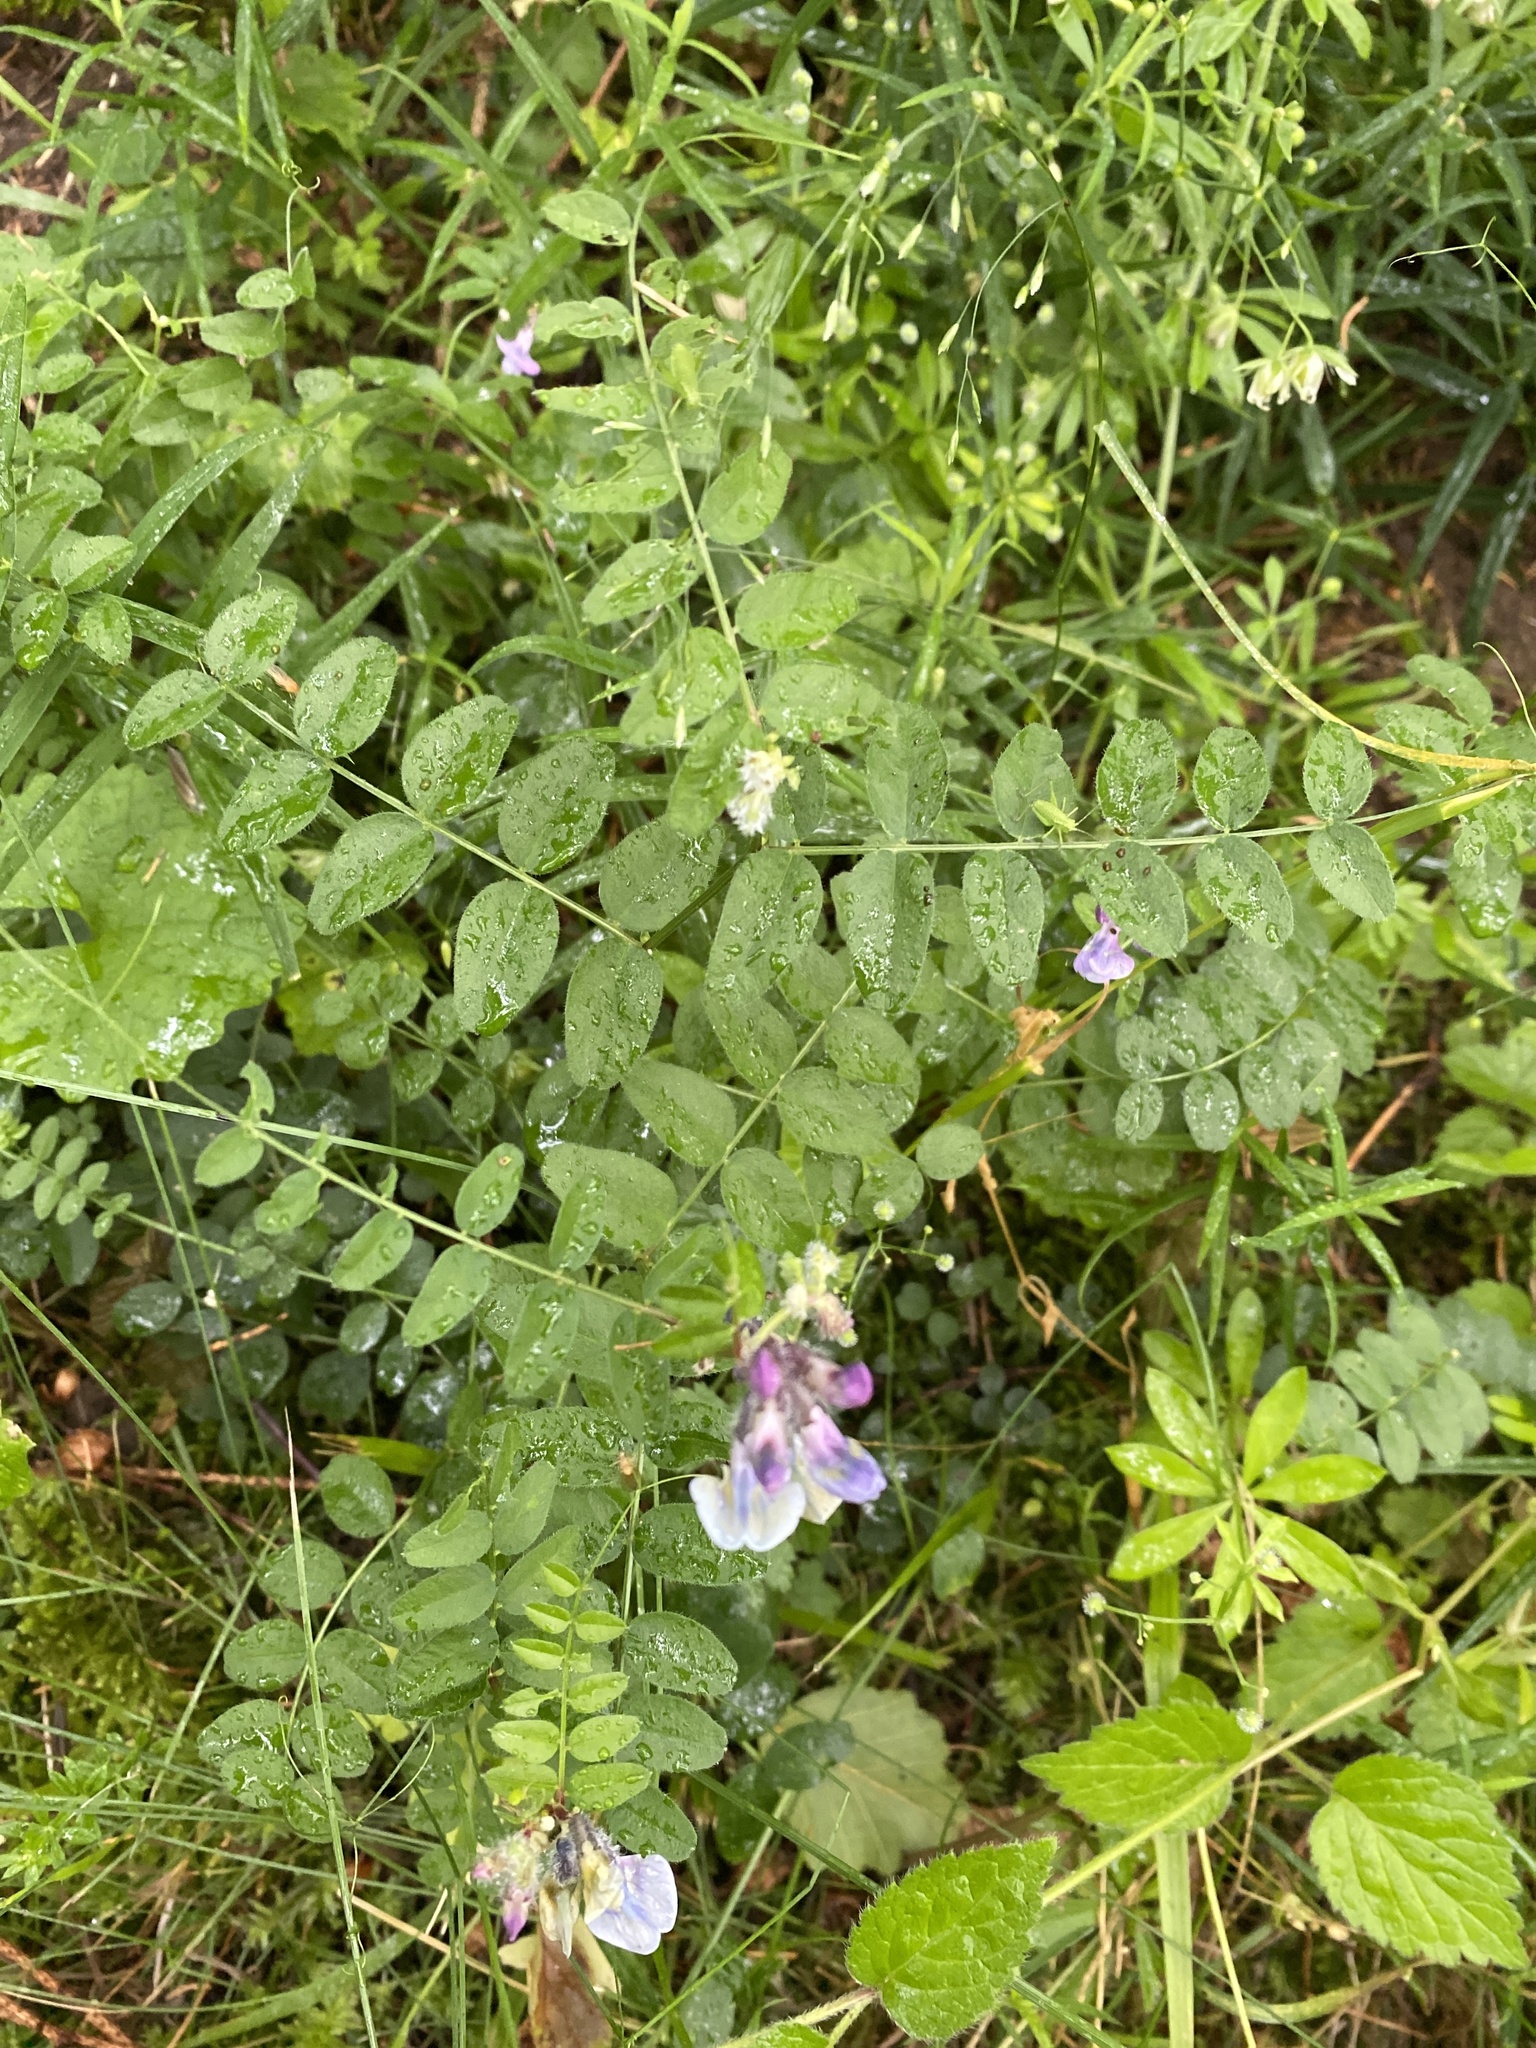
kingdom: Plantae
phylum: Tracheophyta
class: Magnoliopsida
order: Fabales
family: Fabaceae
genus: Vicia
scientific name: Vicia sepium
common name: Bush vetch
